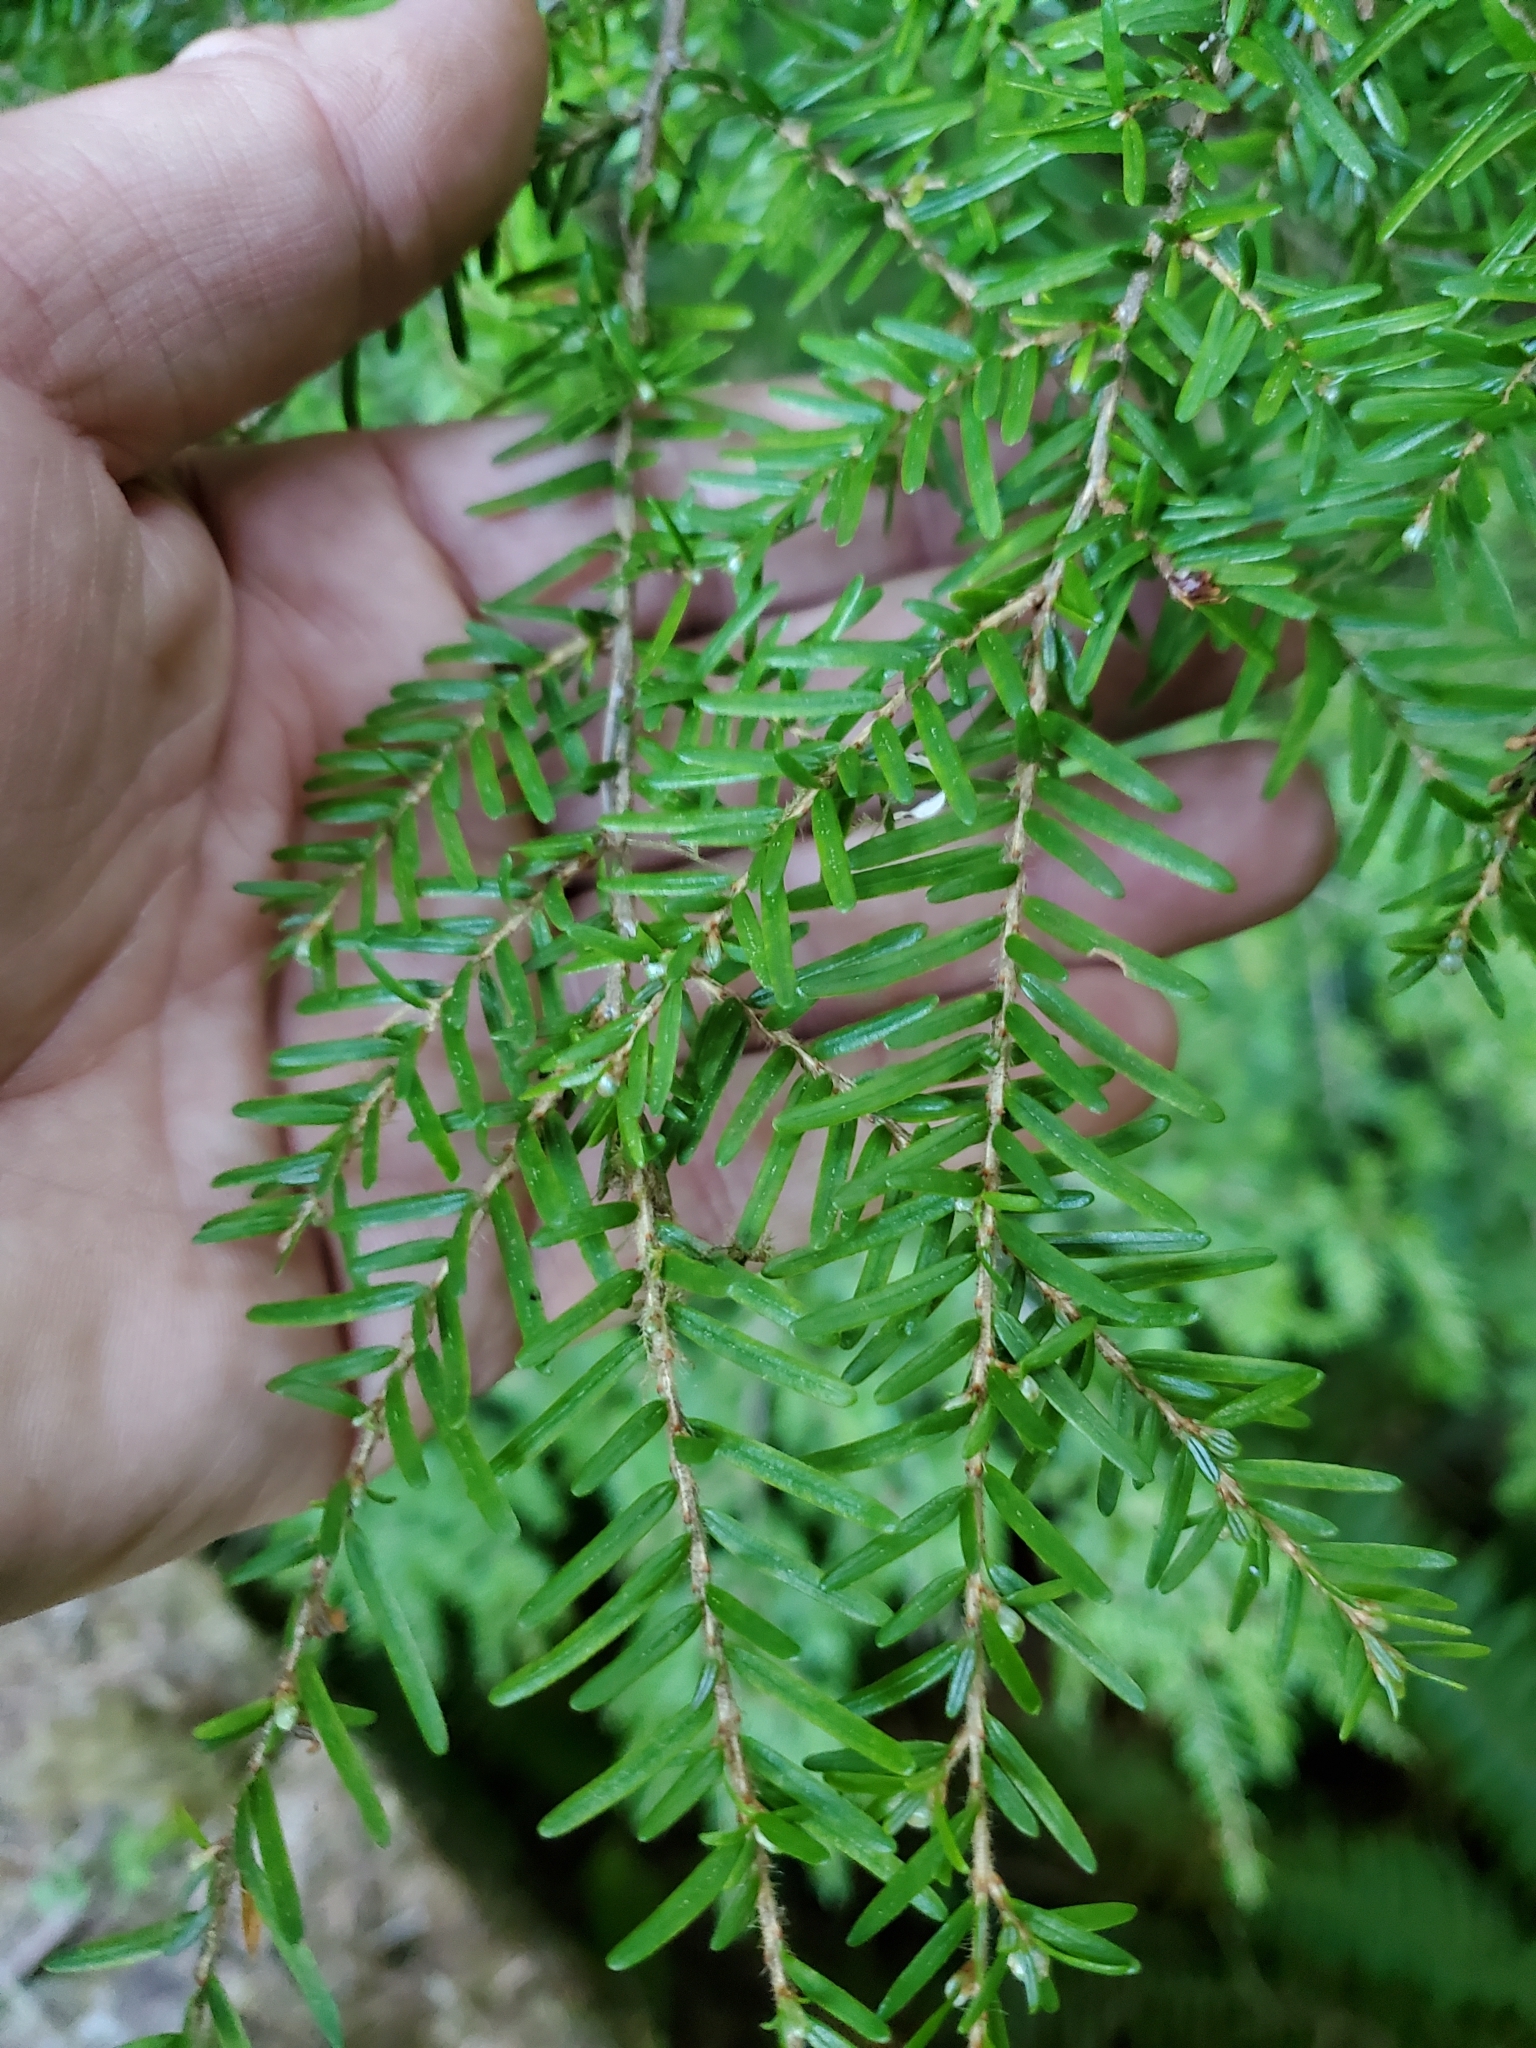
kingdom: Plantae
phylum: Tracheophyta
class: Pinopsida
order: Pinales
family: Pinaceae
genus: Tsuga
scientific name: Tsuga heterophylla
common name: Western hemlock
